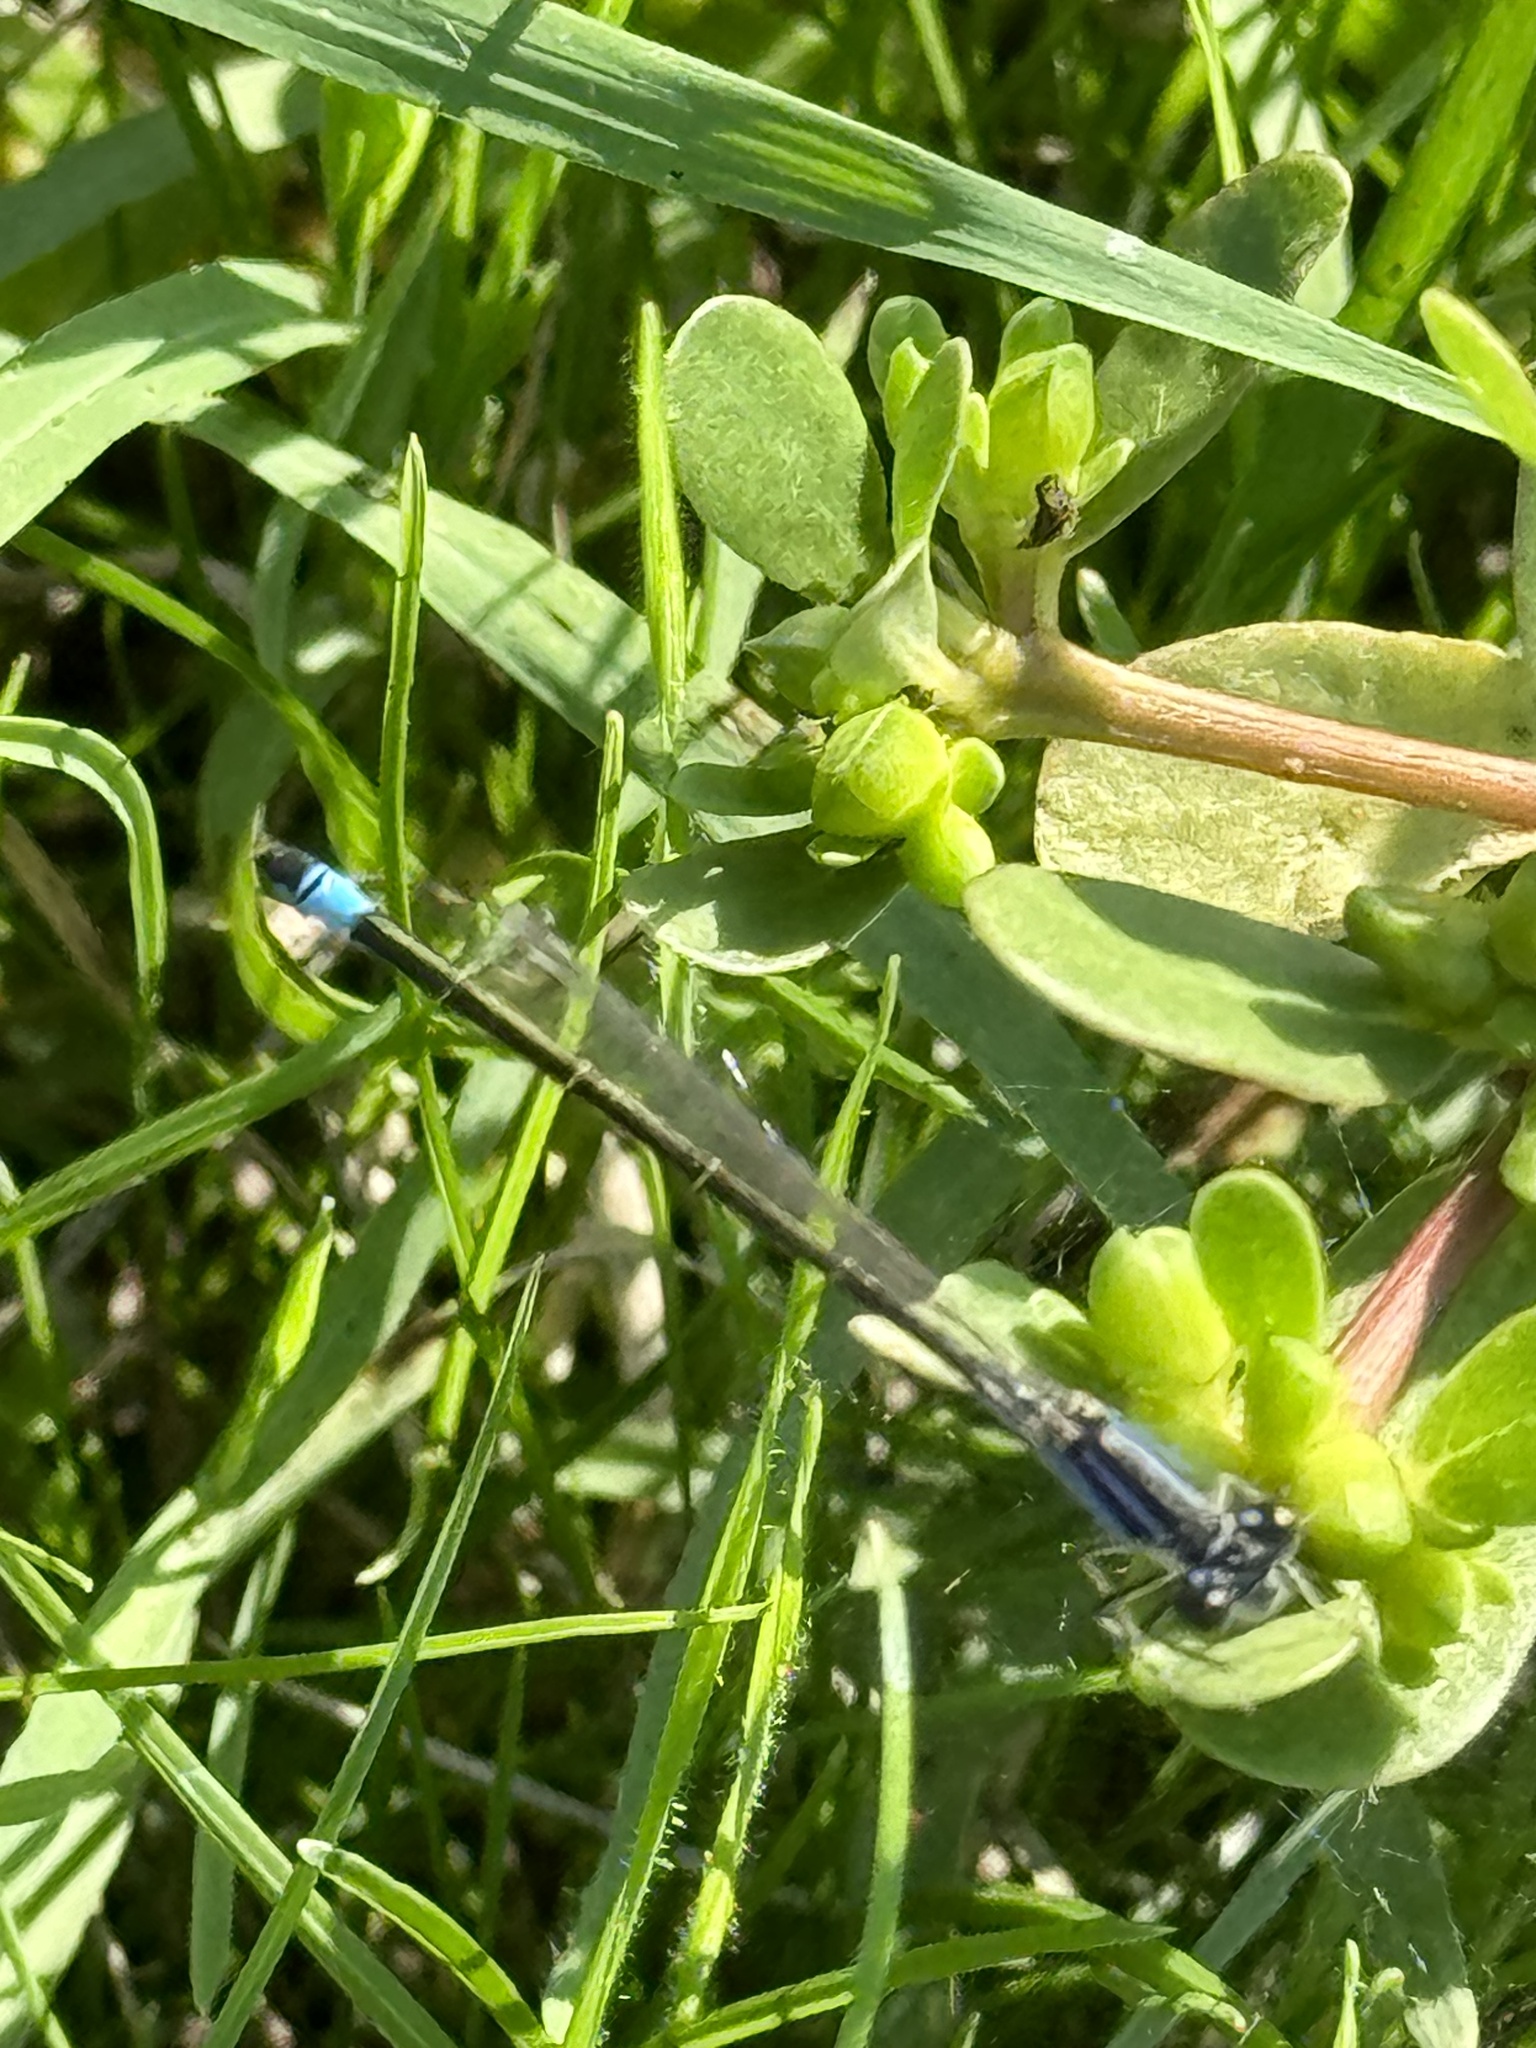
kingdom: Animalia
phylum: Arthropoda
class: Insecta
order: Odonata
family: Coenagrionidae
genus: Ischnura
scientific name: Ischnura elegans
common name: Blue-tailed damselfly
